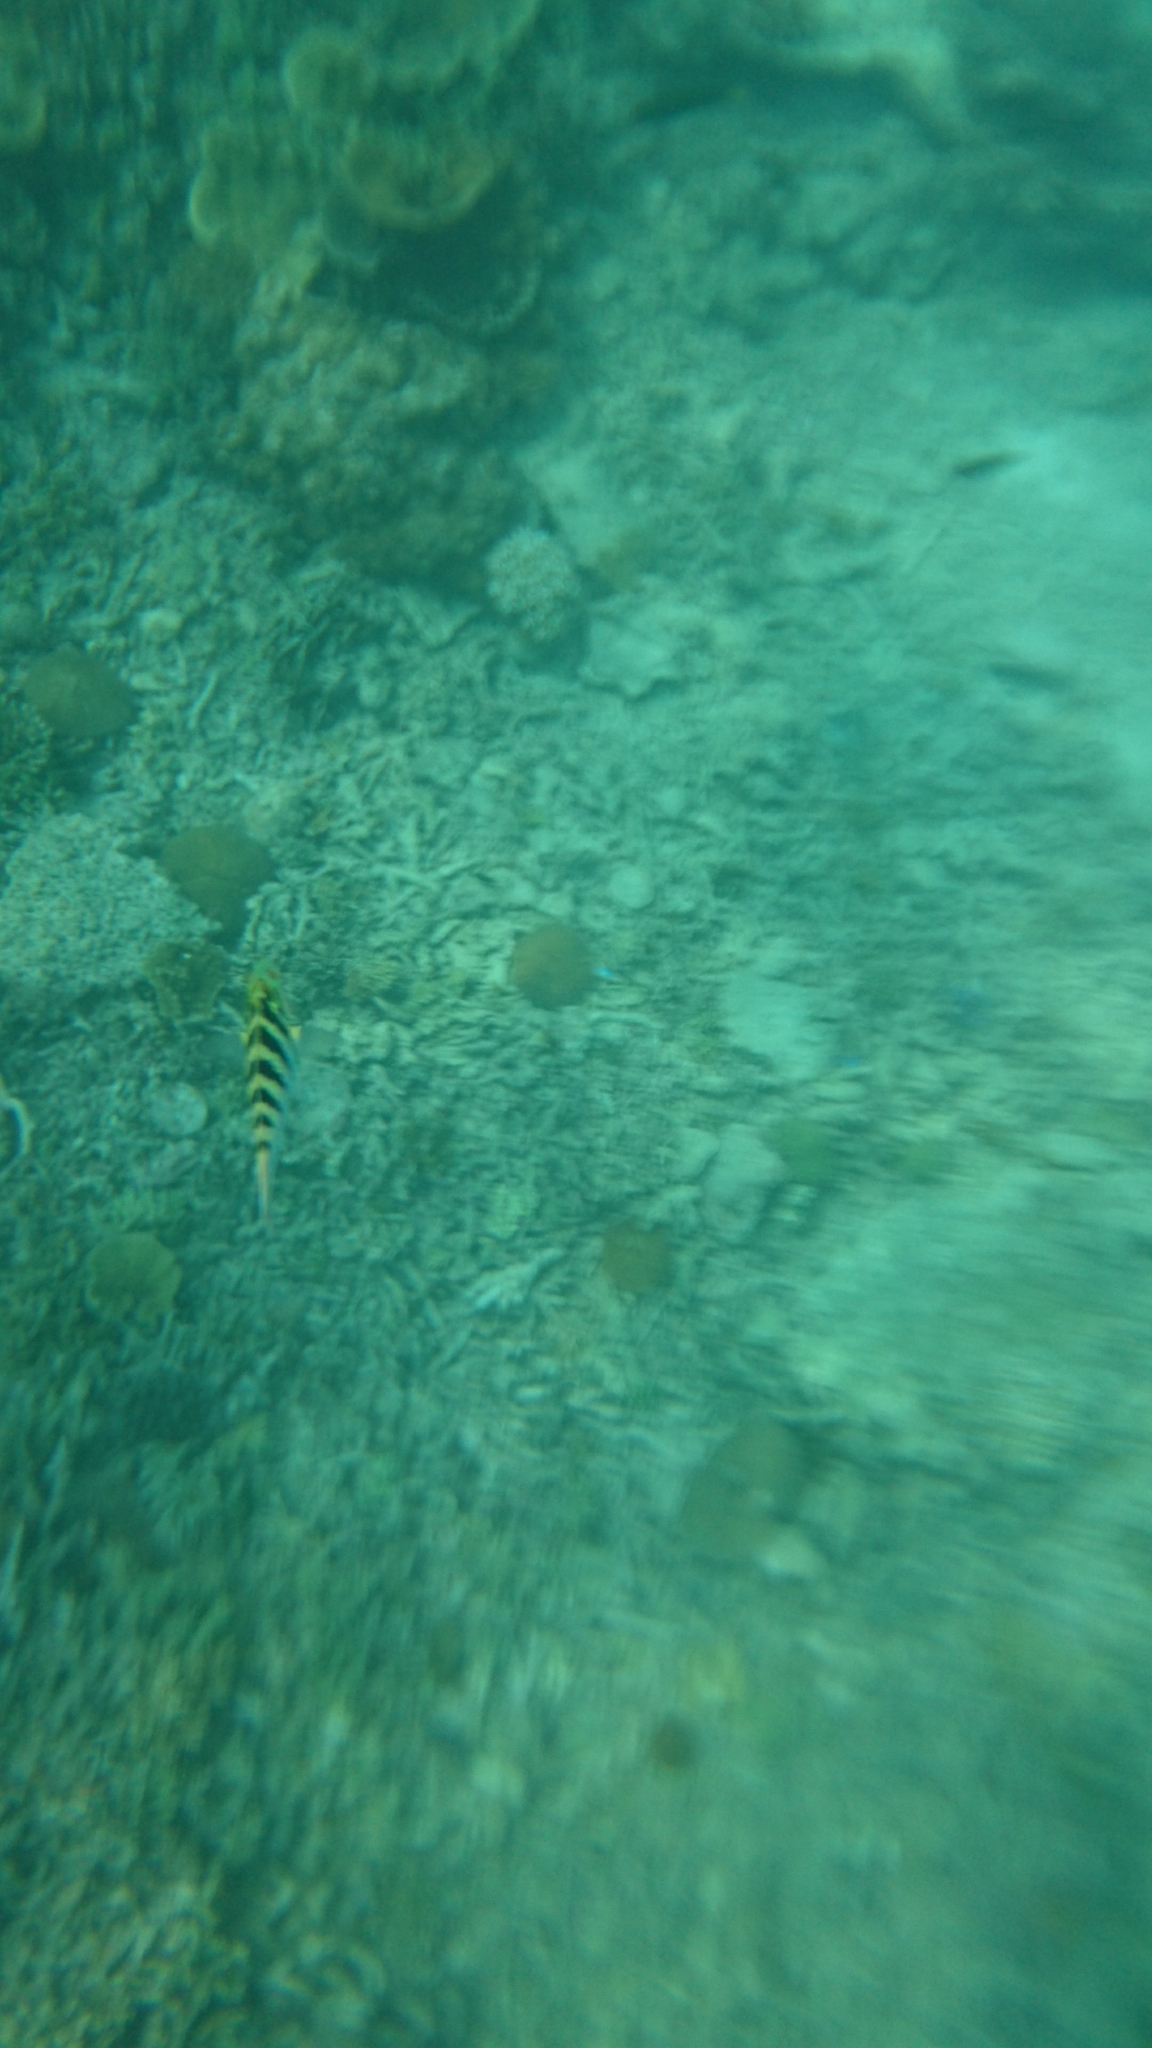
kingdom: Animalia
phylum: Chordata
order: Perciformes
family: Labridae
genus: Thalassoma
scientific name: Thalassoma hardwicke
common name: Sixbar wrasse
